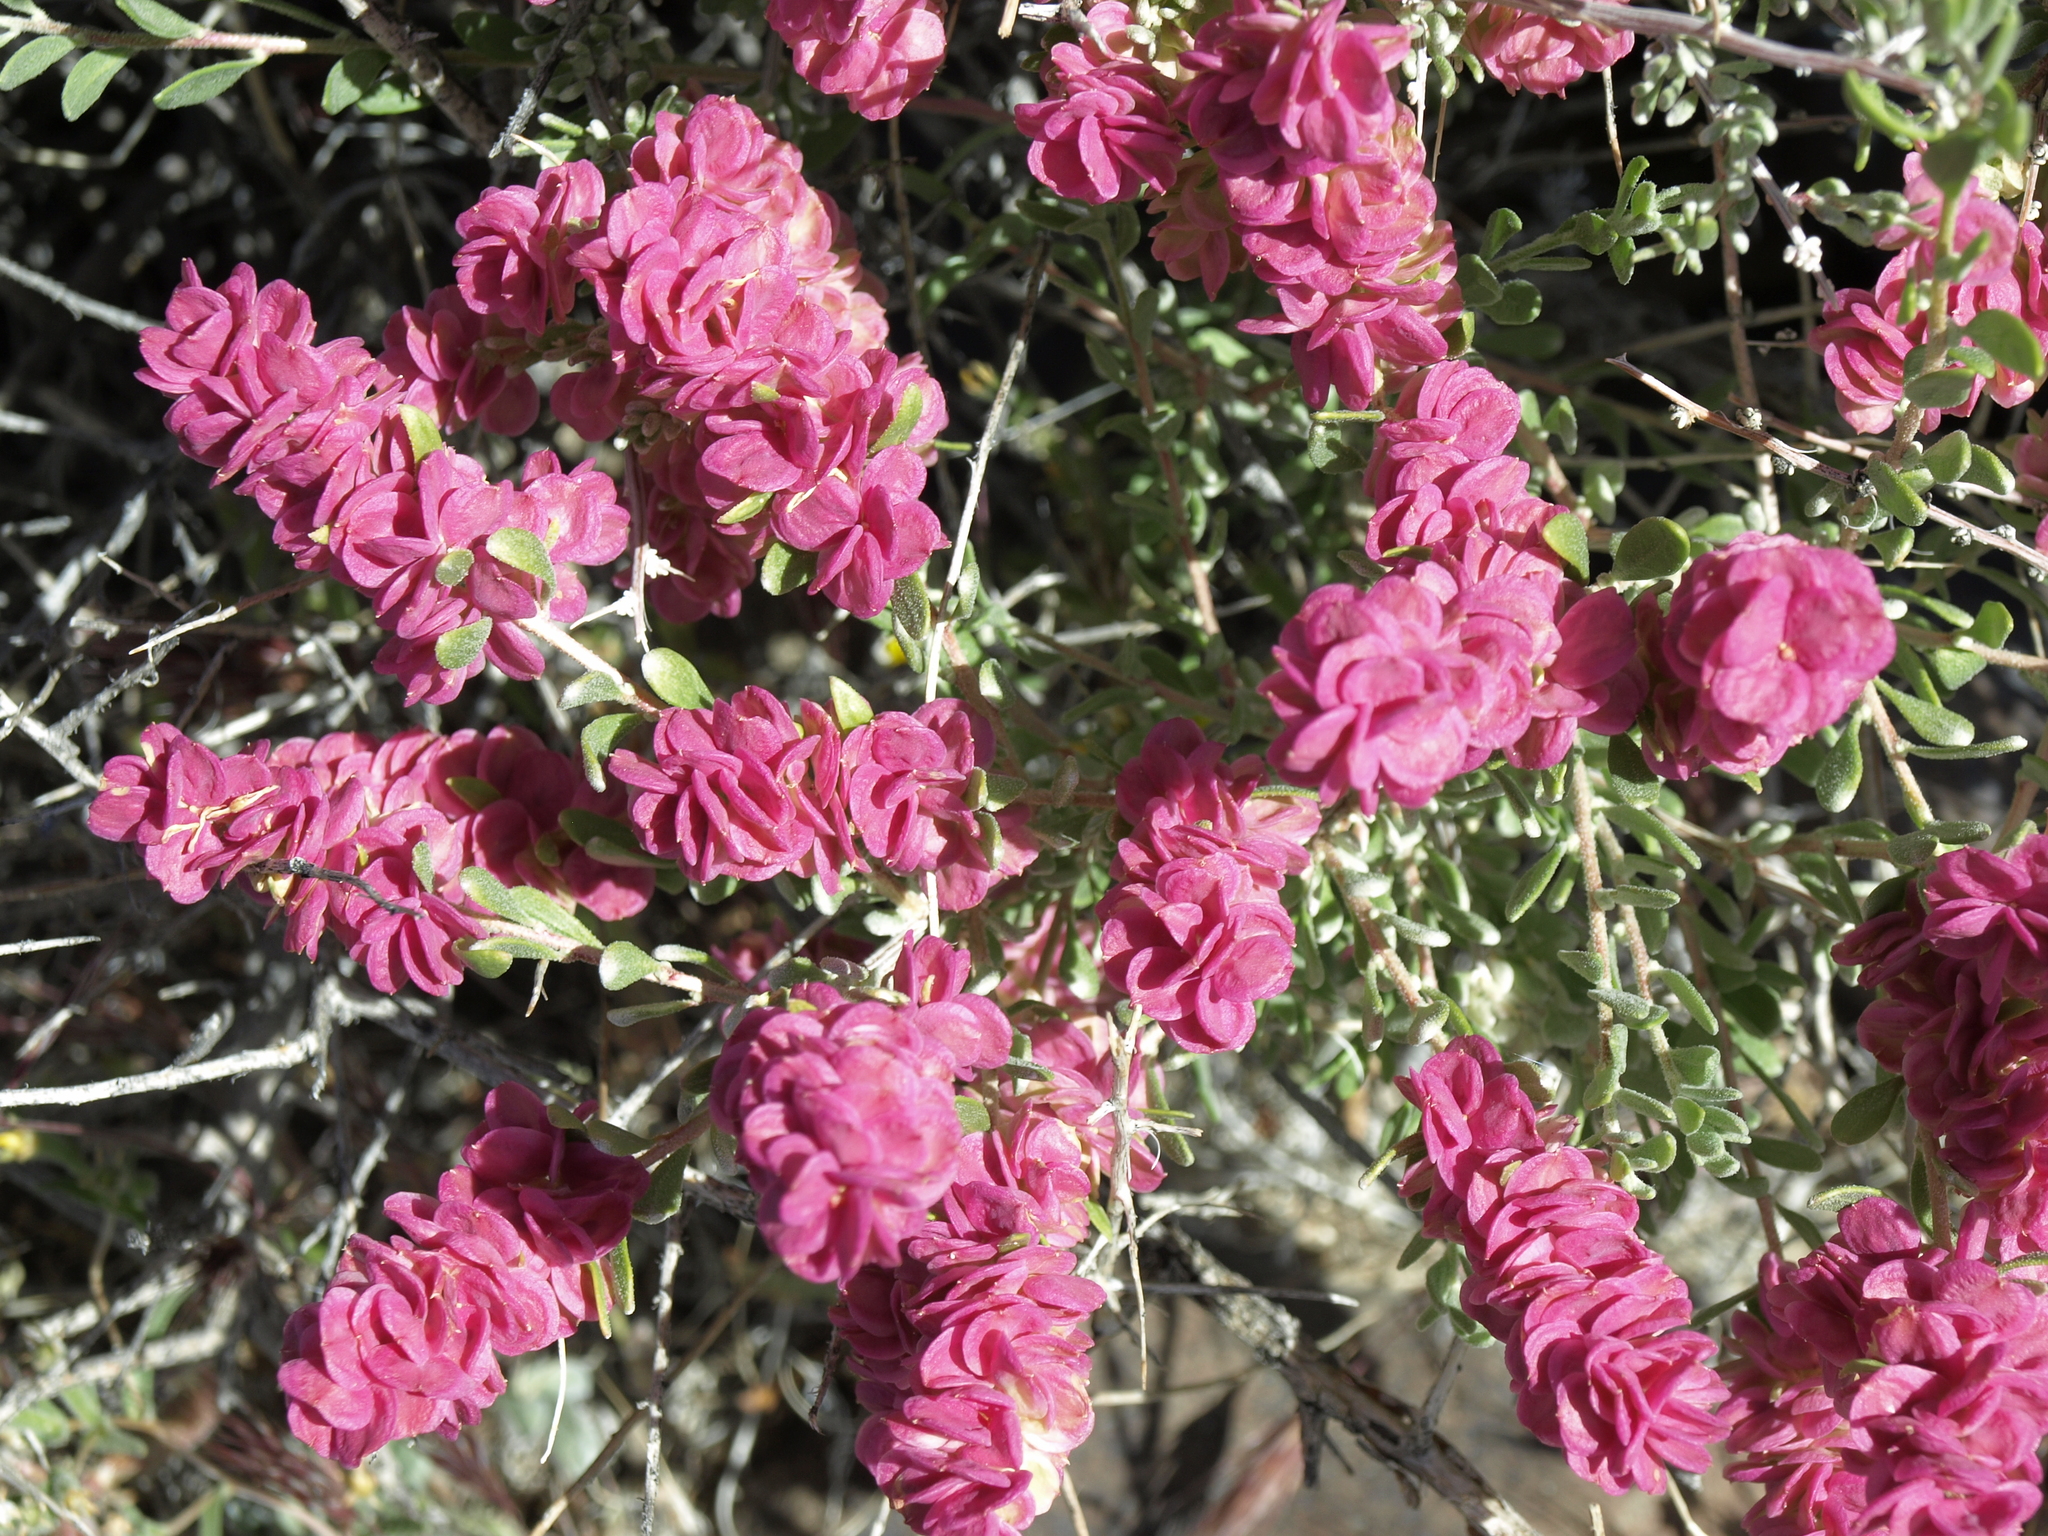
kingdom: Plantae
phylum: Tracheophyta
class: Magnoliopsida
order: Caryophyllales
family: Amaranthaceae
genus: Grayia
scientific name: Grayia spinosa
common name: Spiny hopsage
